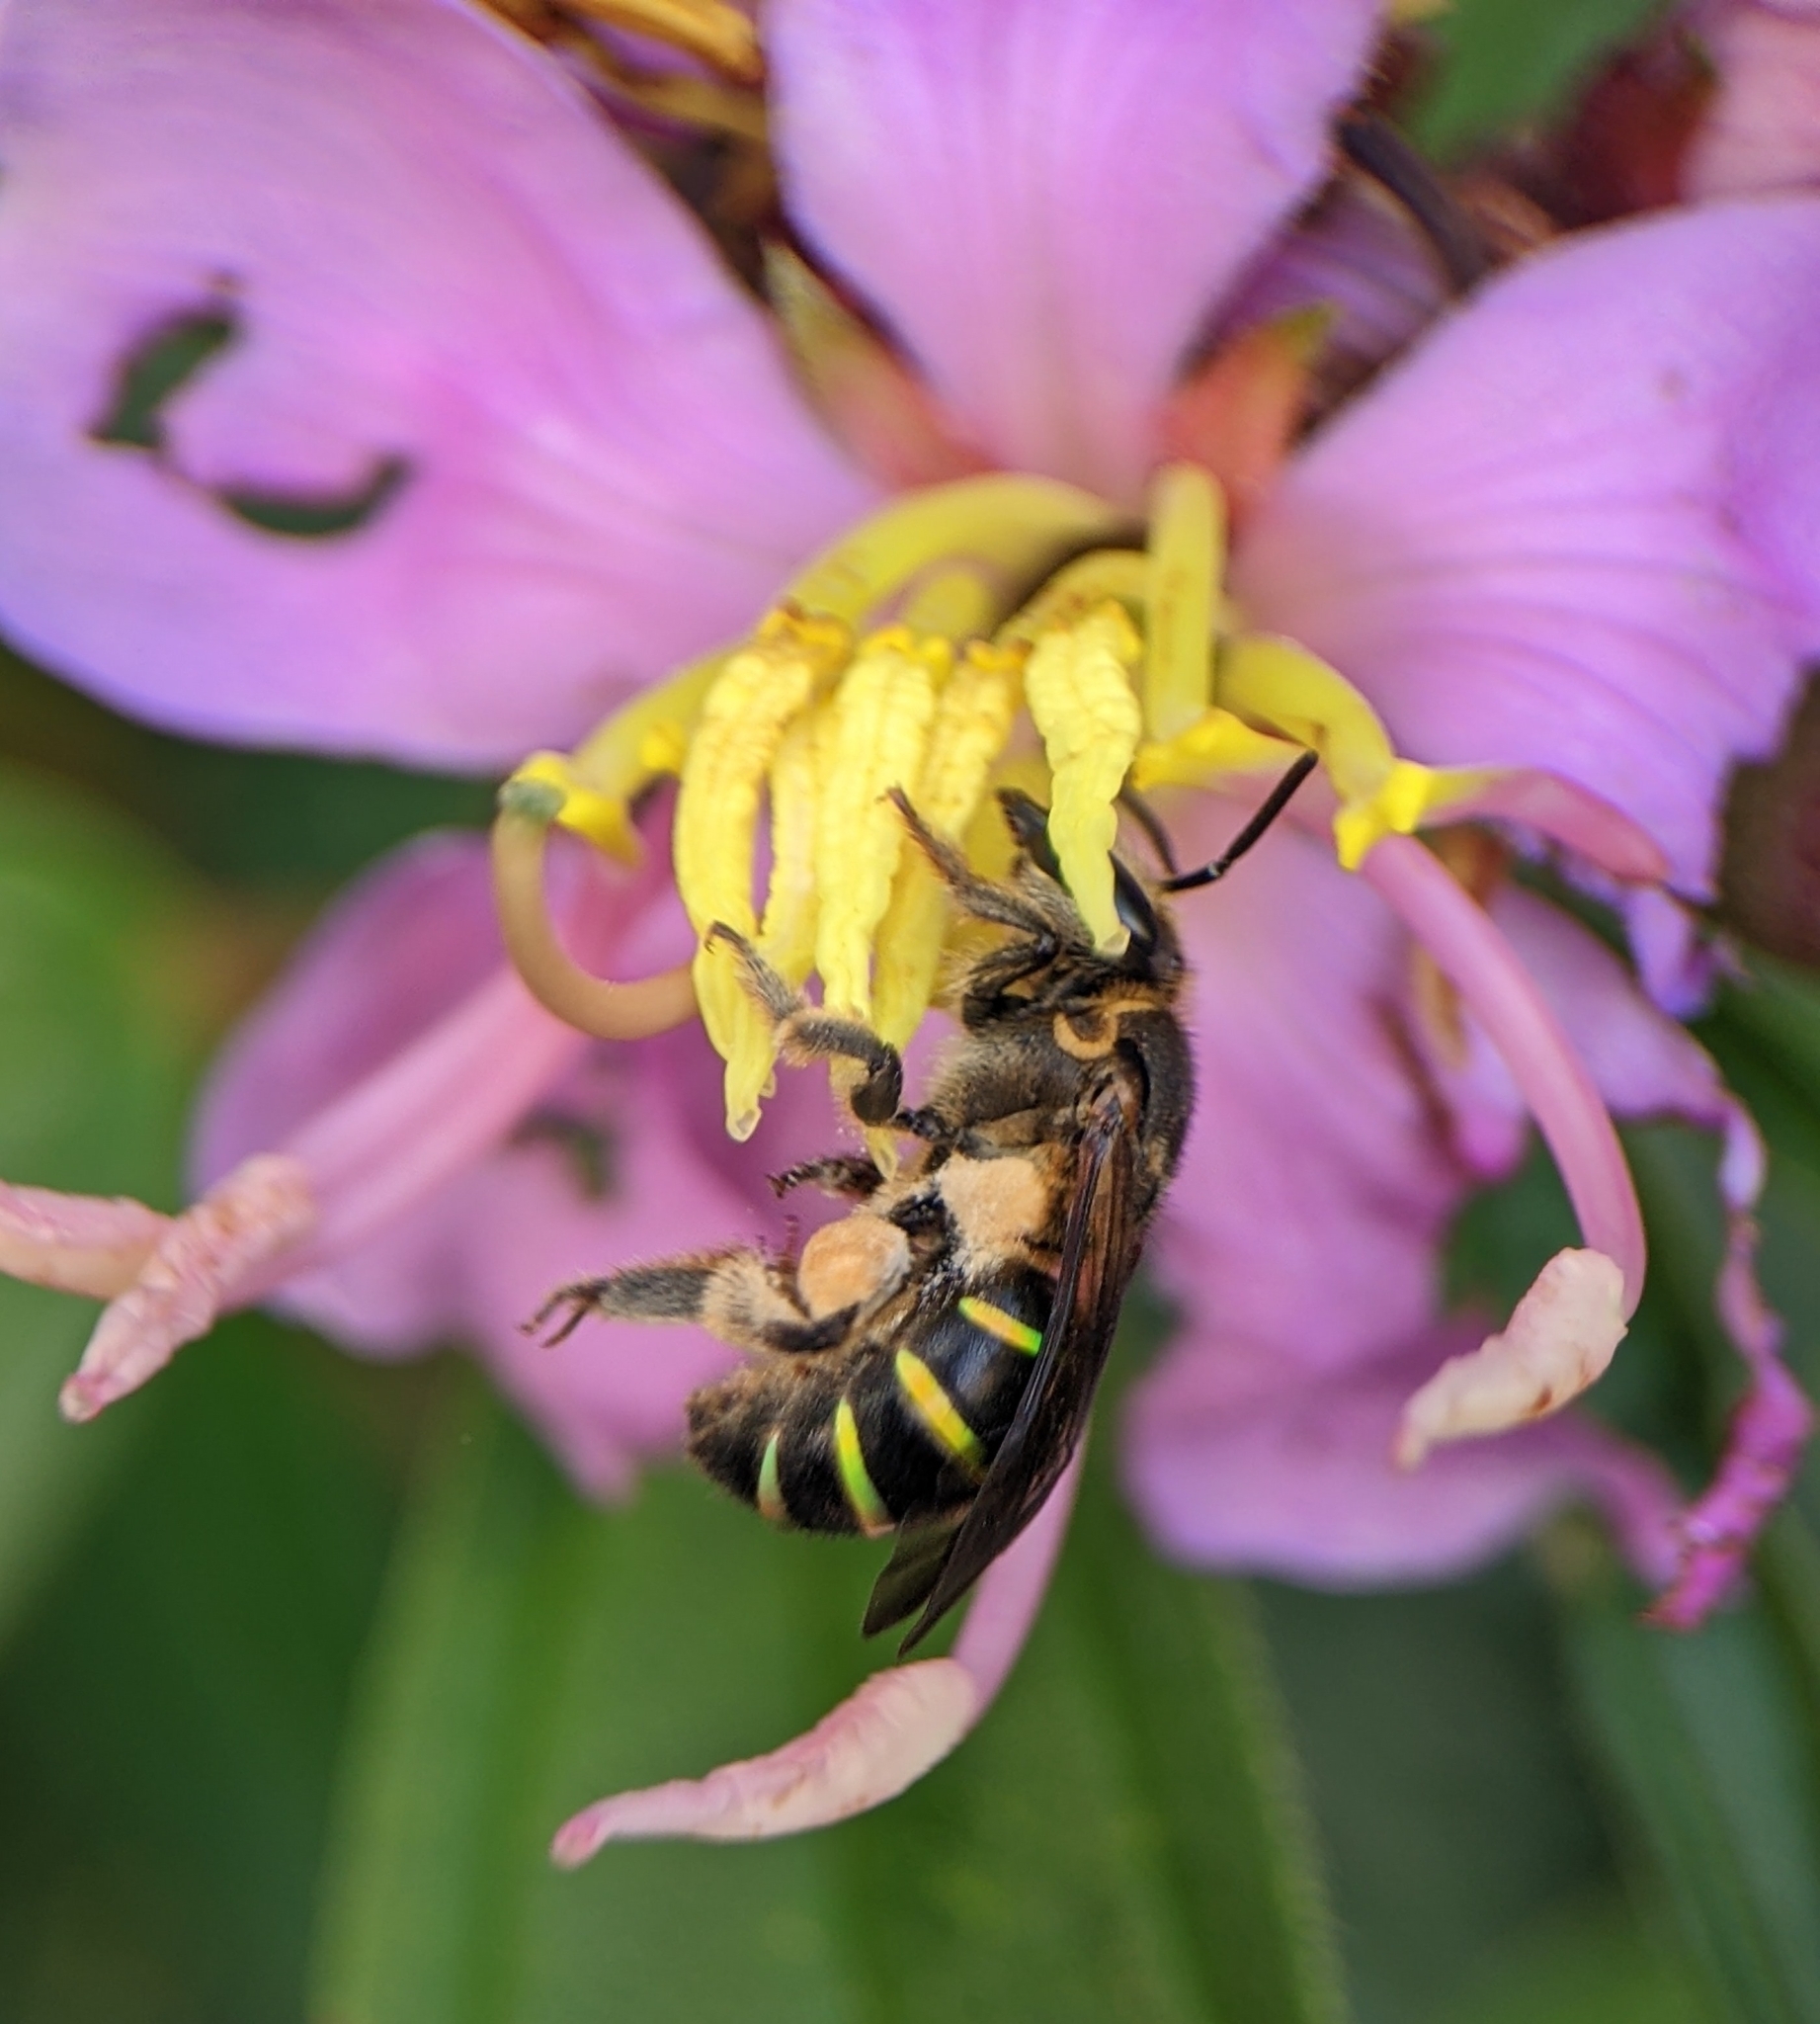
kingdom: Animalia
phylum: Arthropoda
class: Insecta
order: Hymenoptera
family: Halictidae
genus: Nomia
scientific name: Nomia strigata
